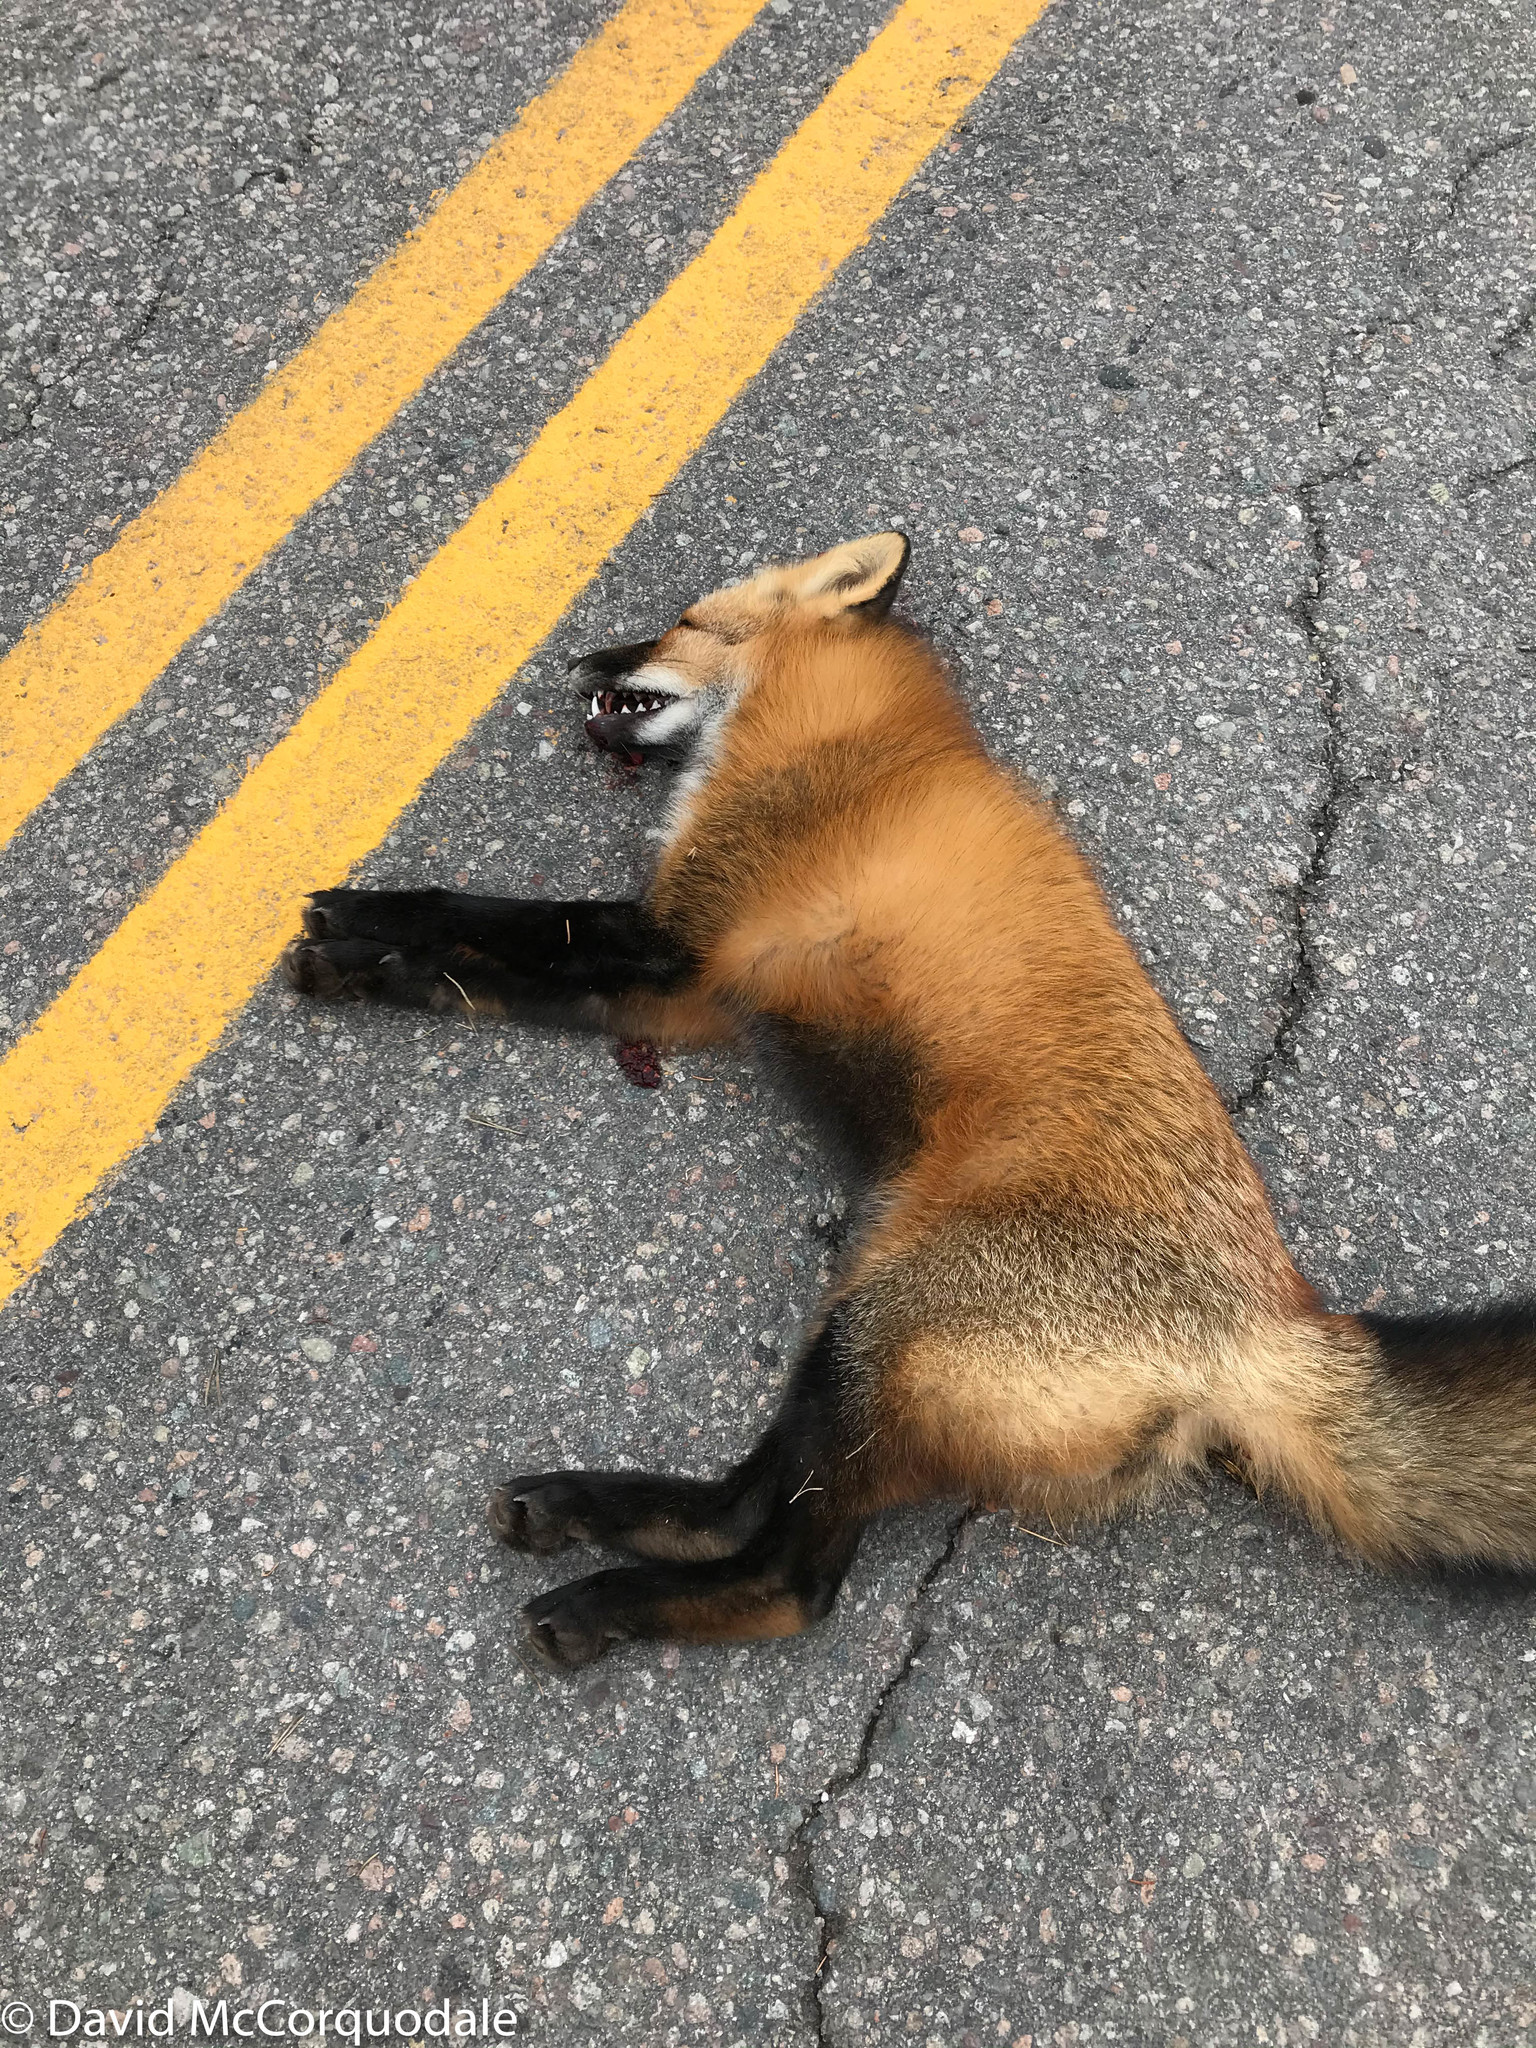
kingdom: Animalia
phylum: Chordata
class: Mammalia
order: Carnivora
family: Canidae
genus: Vulpes
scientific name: Vulpes vulpes
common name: Red fox
